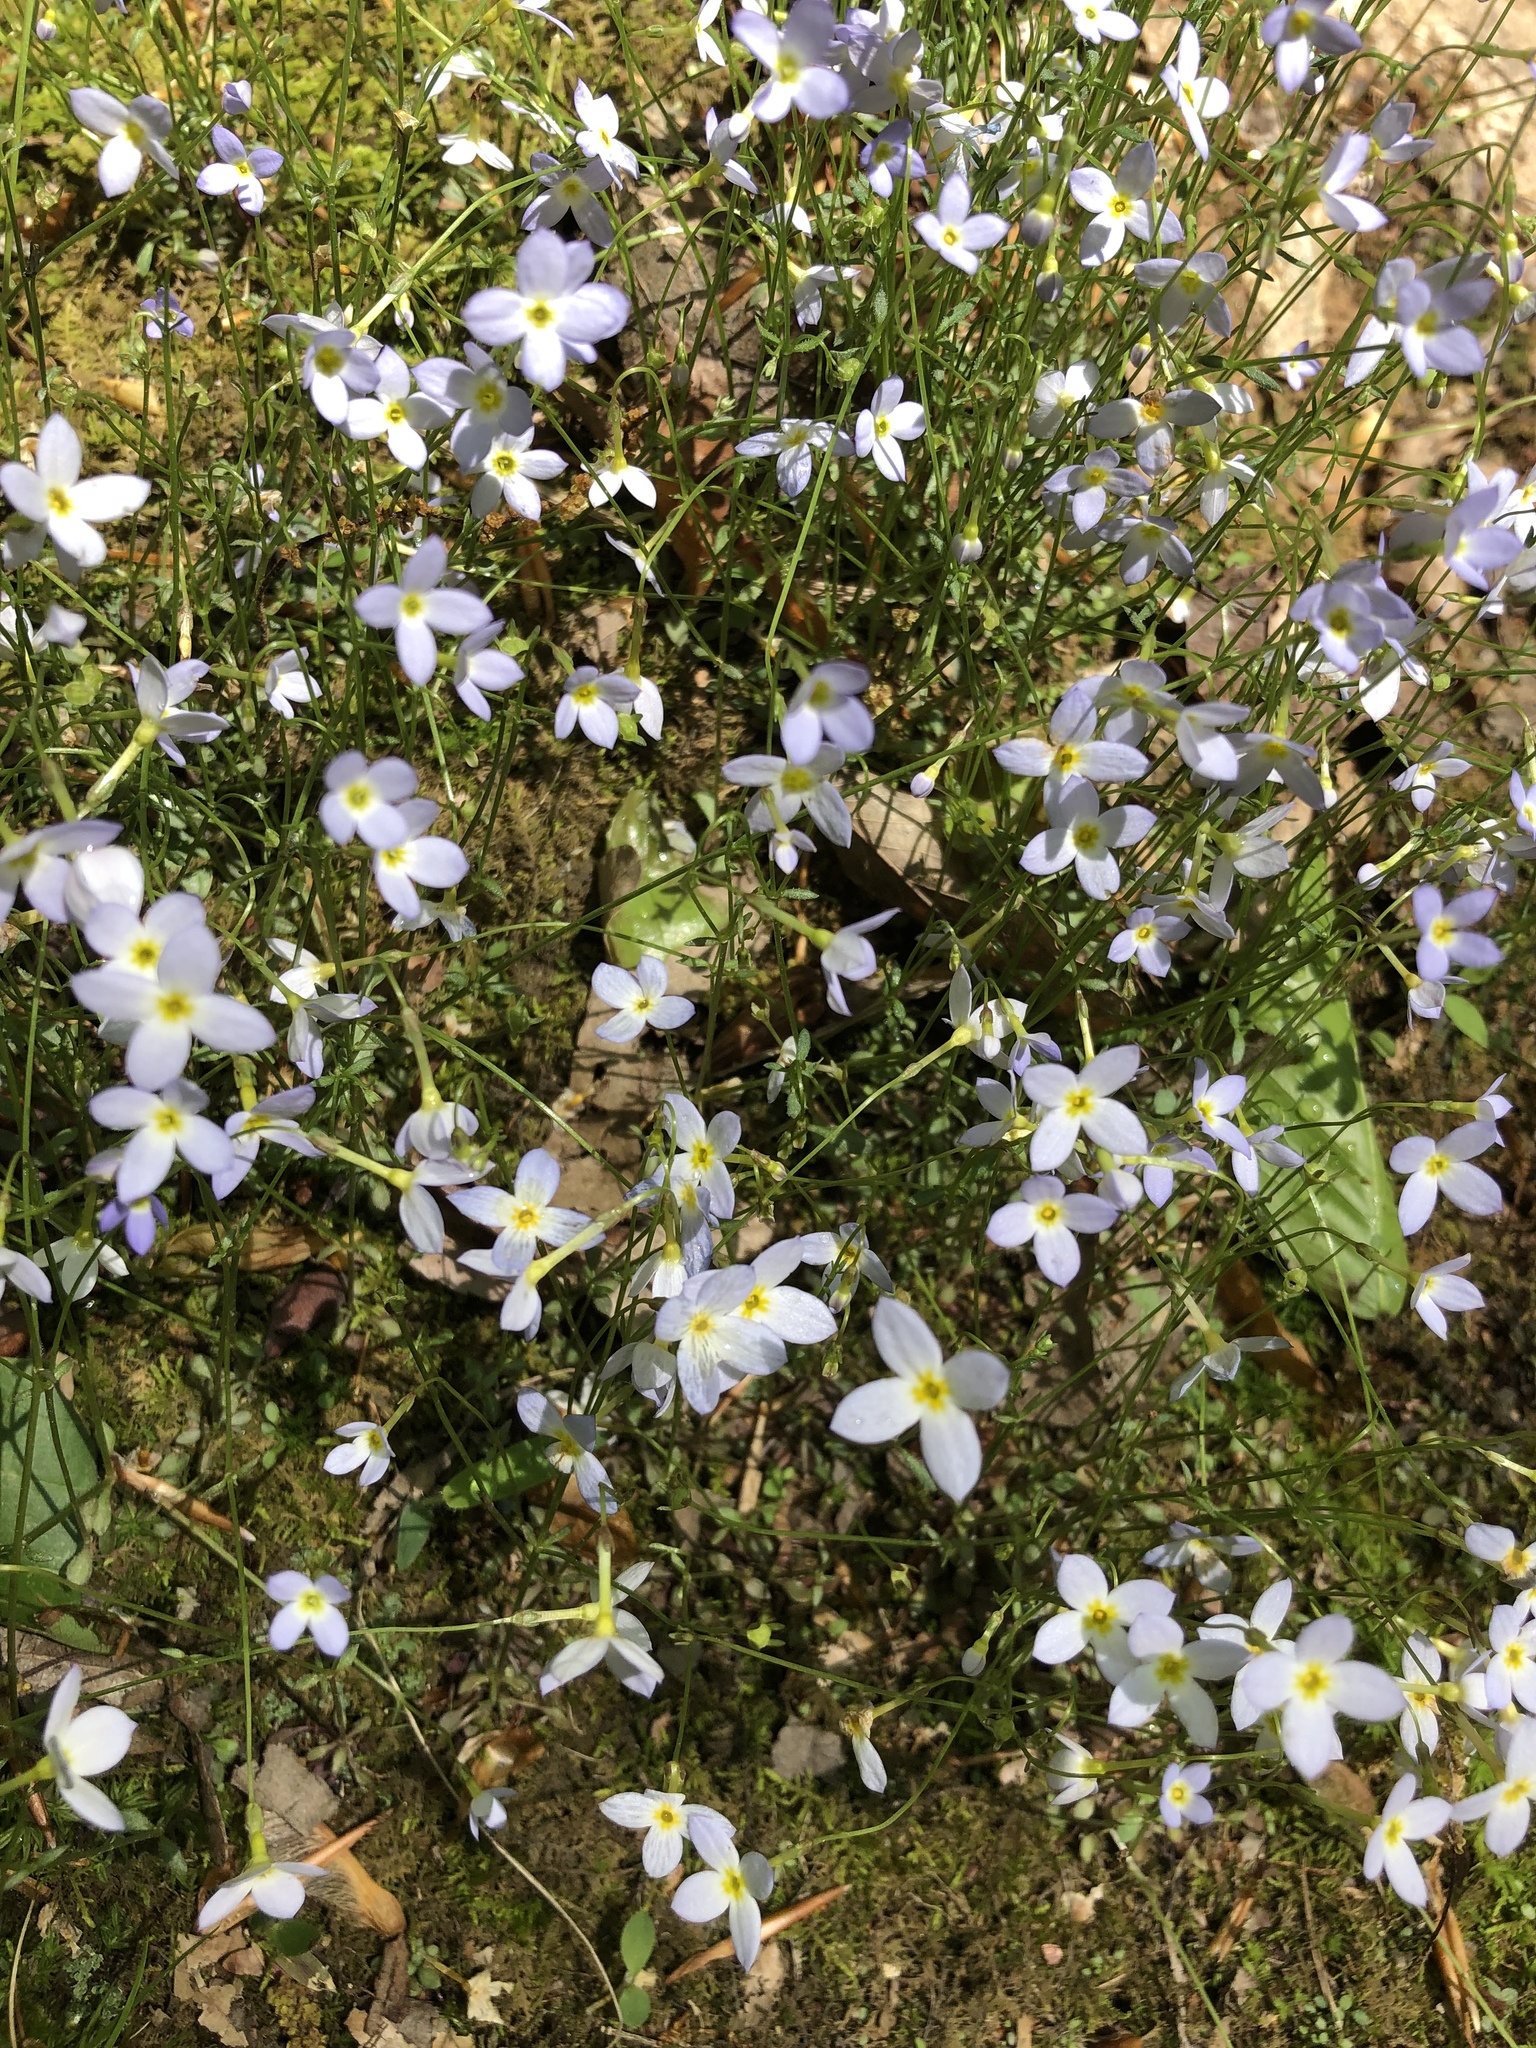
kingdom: Plantae
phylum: Tracheophyta
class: Magnoliopsida
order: Gentianales
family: Rubiaceae
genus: Houstonia
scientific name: Houstonia caerulea
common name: Bluets
